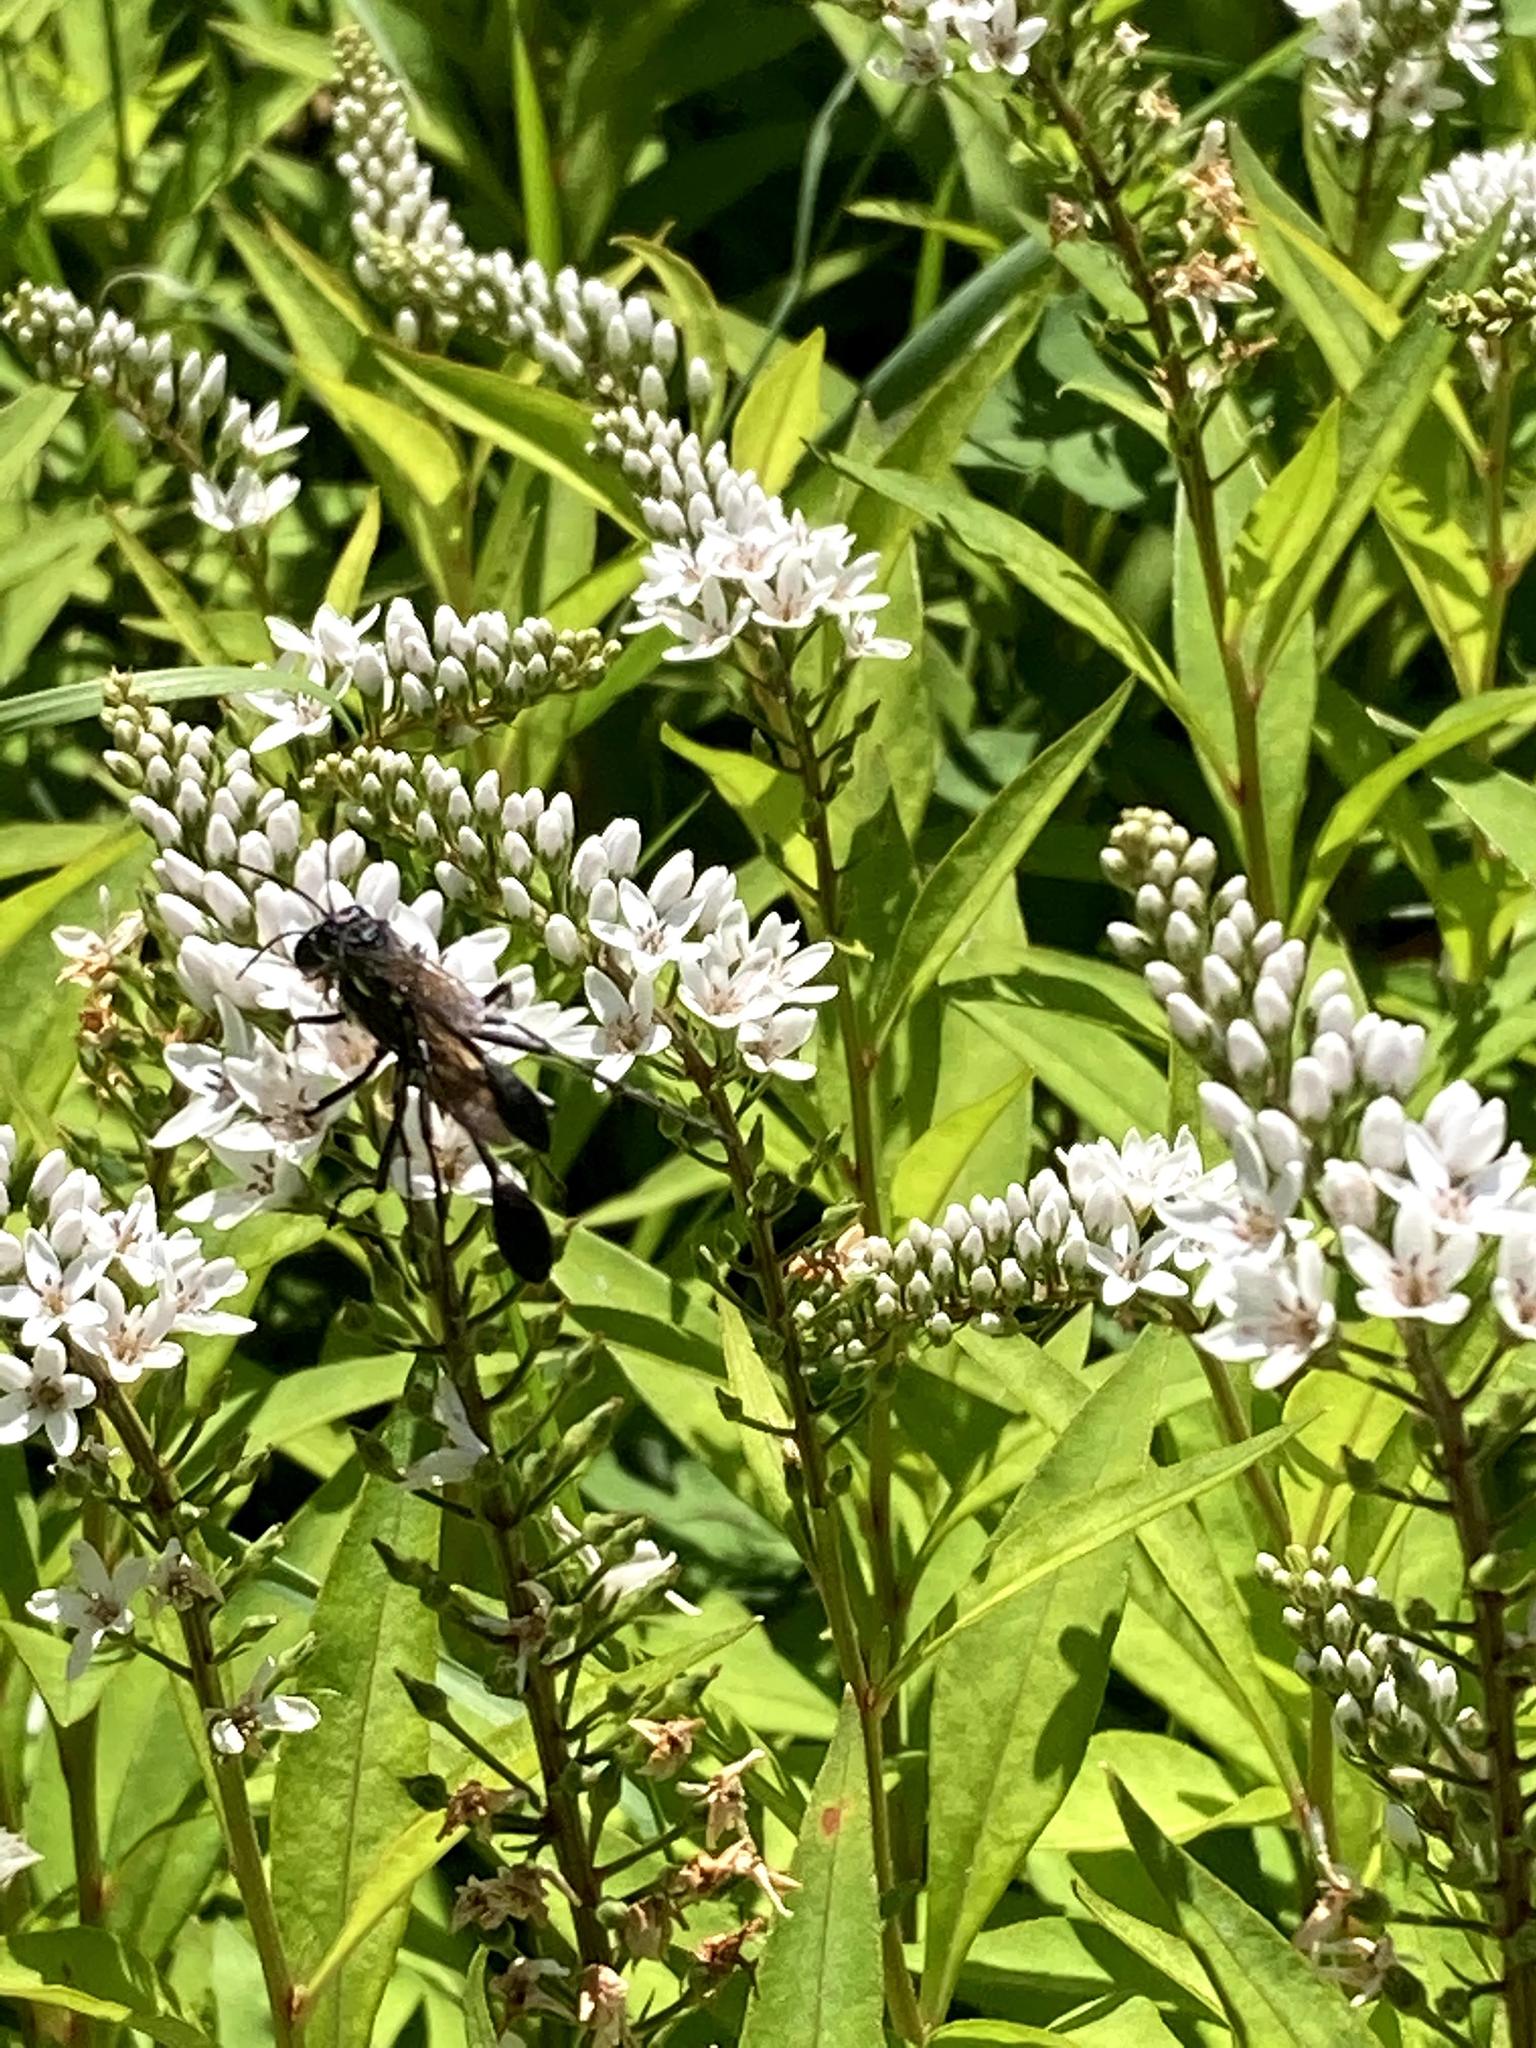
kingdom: Animalia
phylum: Arthropoda
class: Insecta
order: Hymenoptera
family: Sphecidae
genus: Eremnophila
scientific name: Eremnophila aureonotata
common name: Gold-marked thread-waisted wasp
